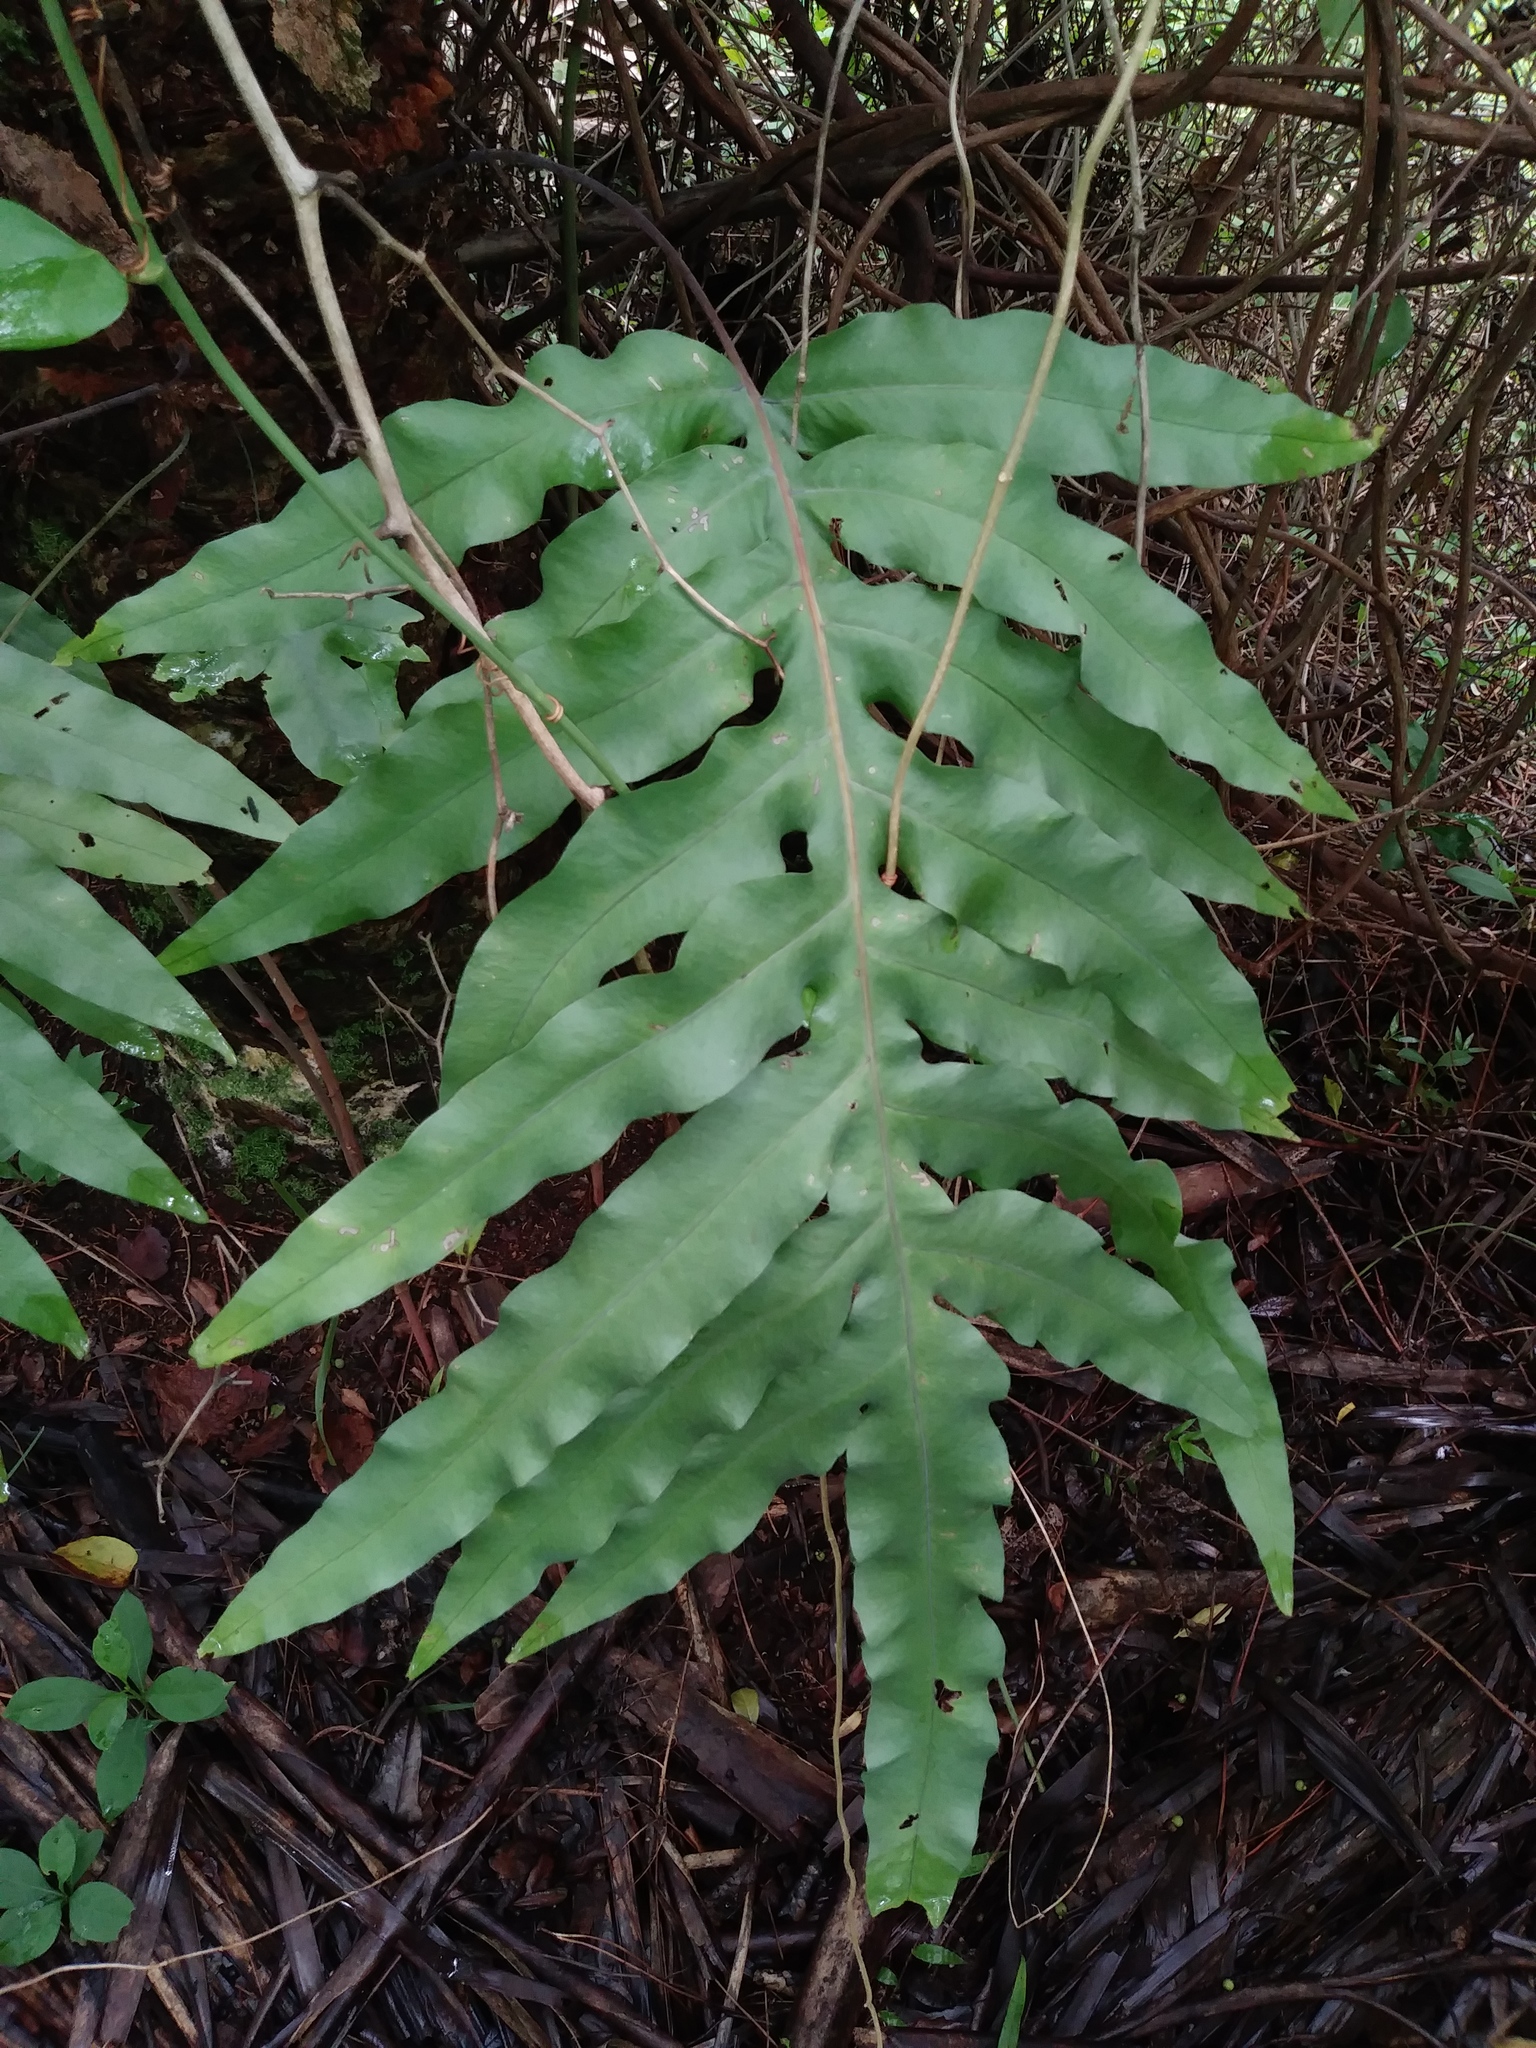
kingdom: Plantae
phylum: Tracheophyta
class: Polypodiopsida
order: Polypodiales
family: Polypodiaceae
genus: Phlebodium
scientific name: Phlebodium aureum
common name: Gold-foot fern
